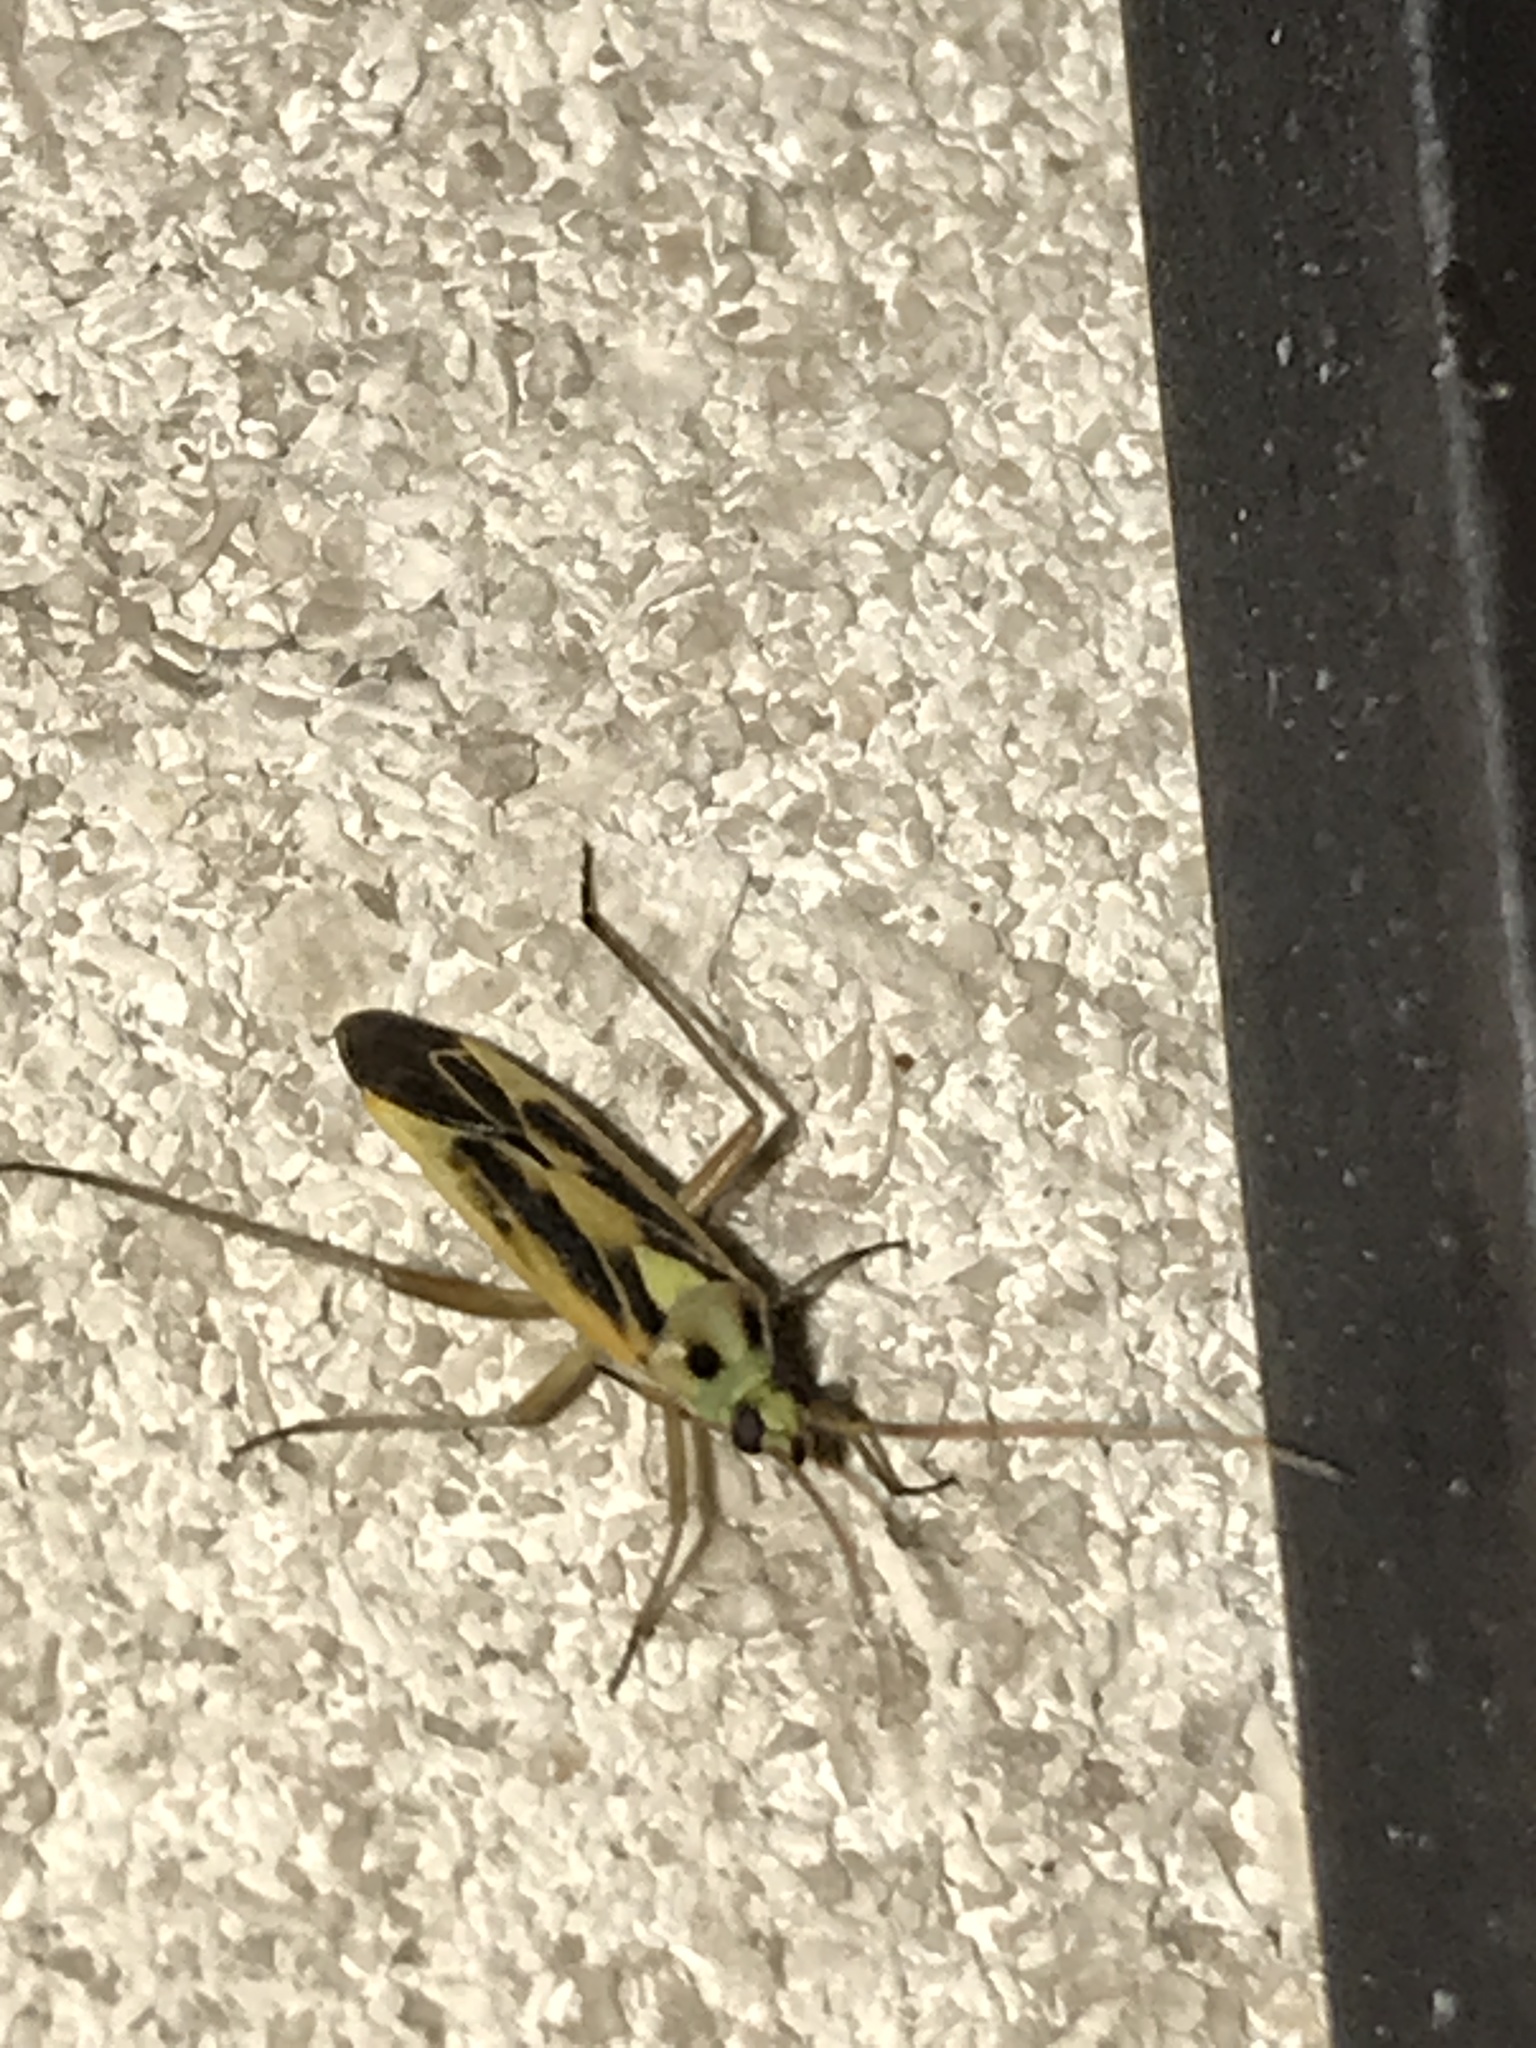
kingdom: Animalia
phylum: Arthropoda
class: Insecta
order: Hemiptera
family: Miridae
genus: Stenotus
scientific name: Stenotus binotatus
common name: Plant bug
